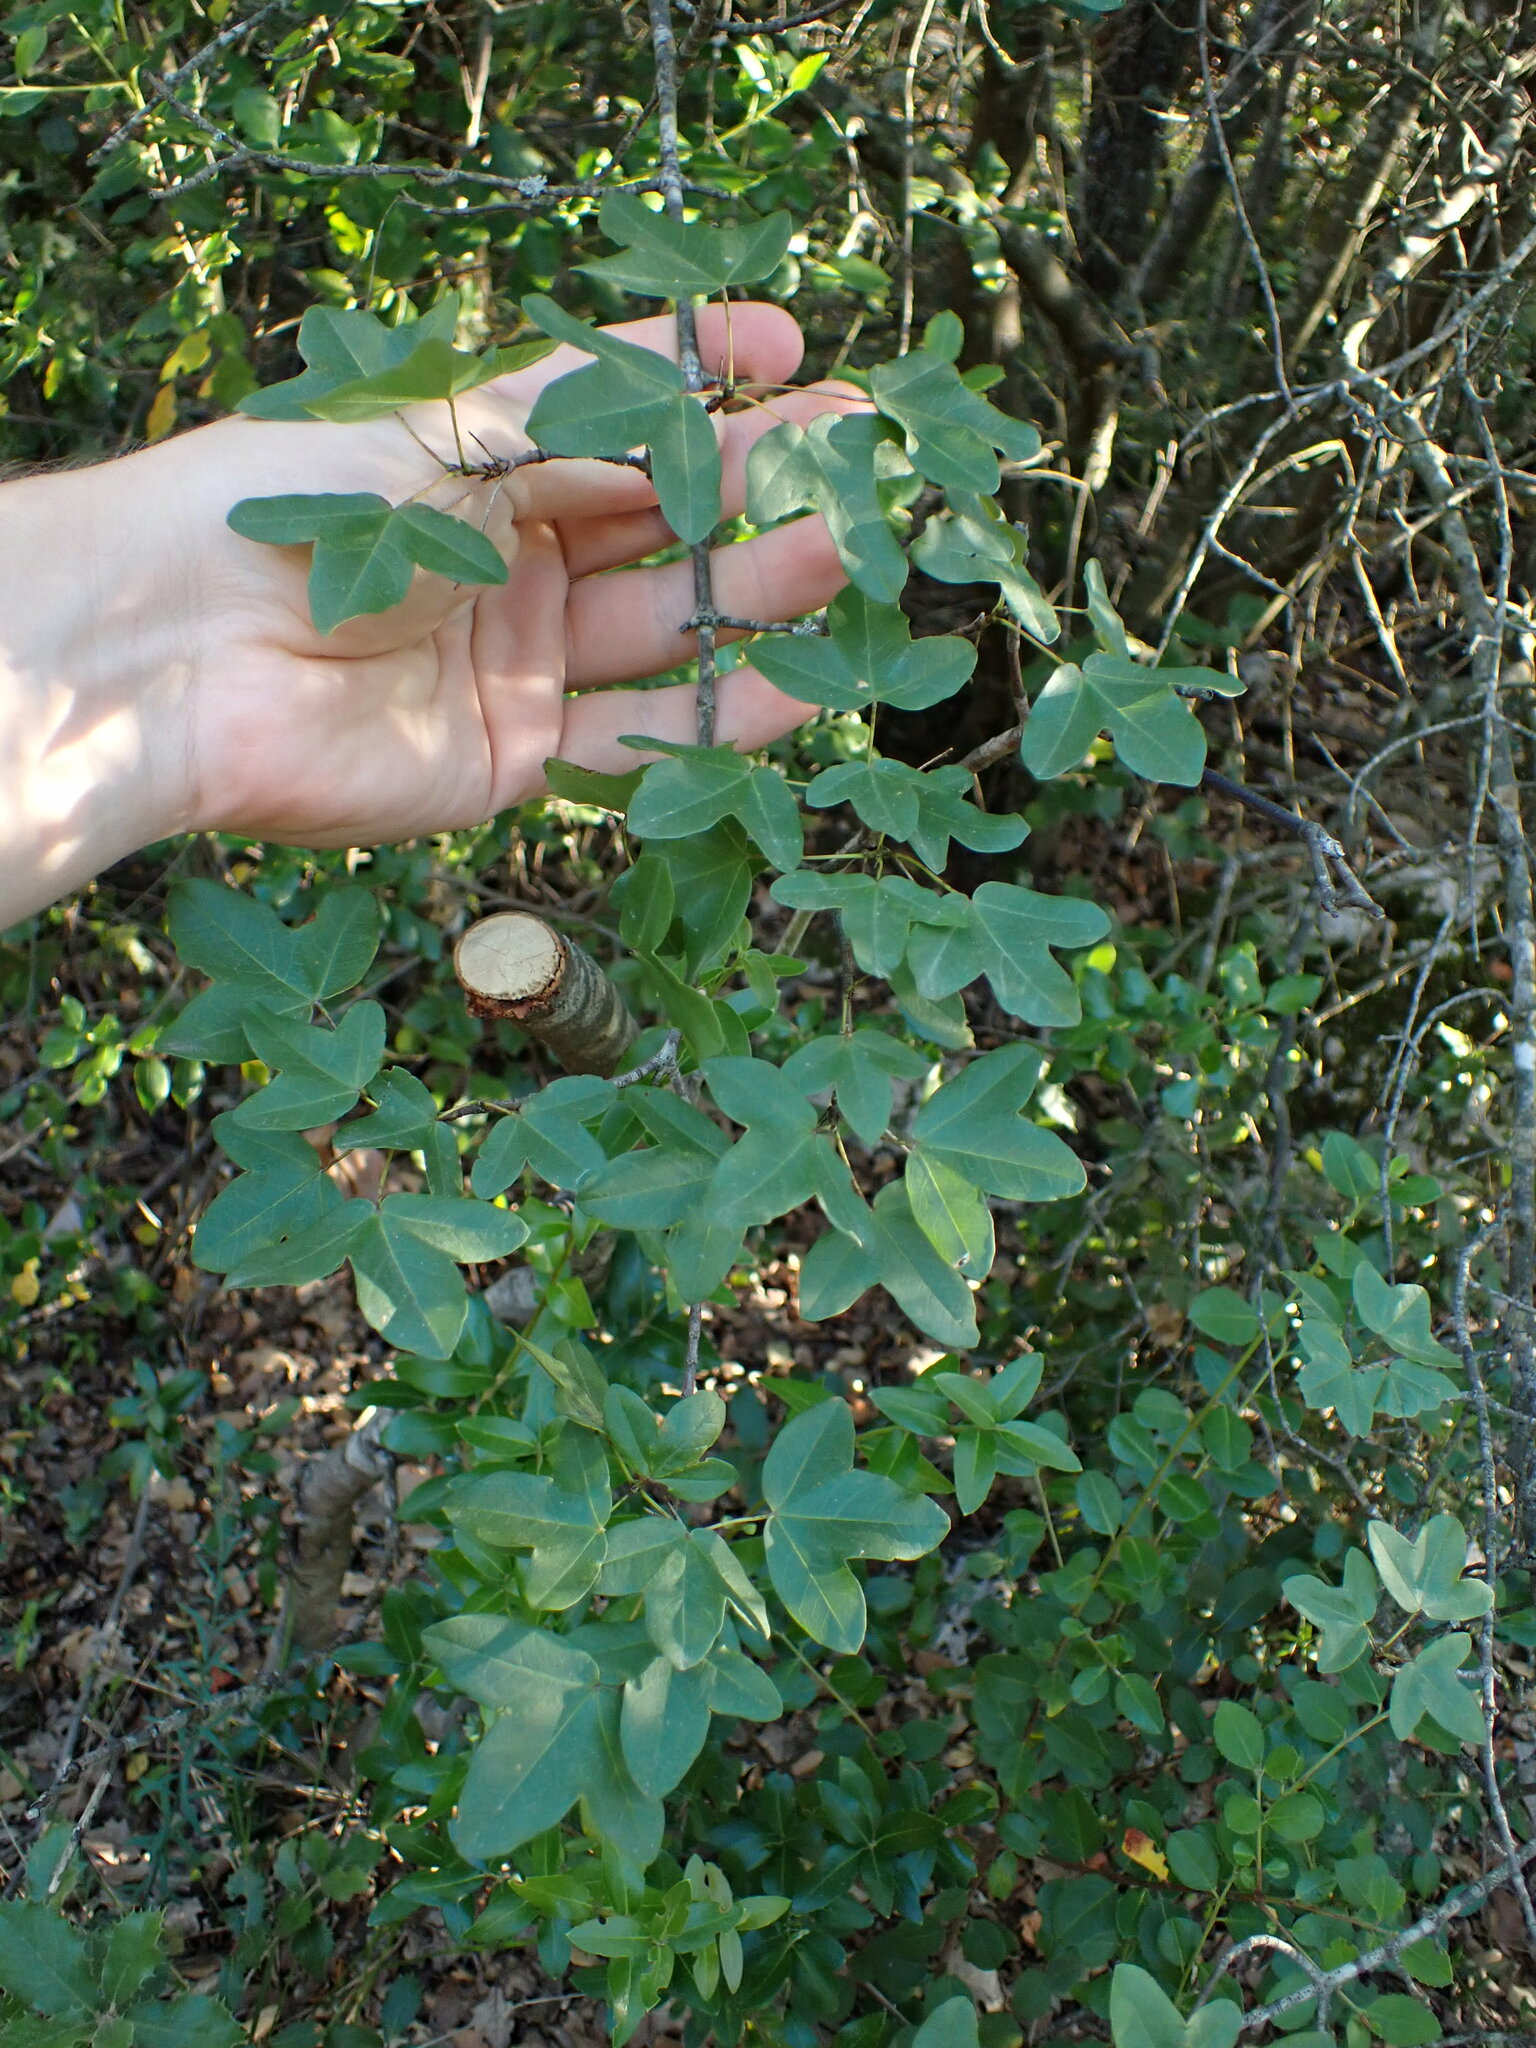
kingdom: Plantae
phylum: Tracheophyta
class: Magnoliopsida
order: Sapindales
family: Sapindaceae
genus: Acer
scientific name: Acer monspessulanum
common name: Montpellier maple
